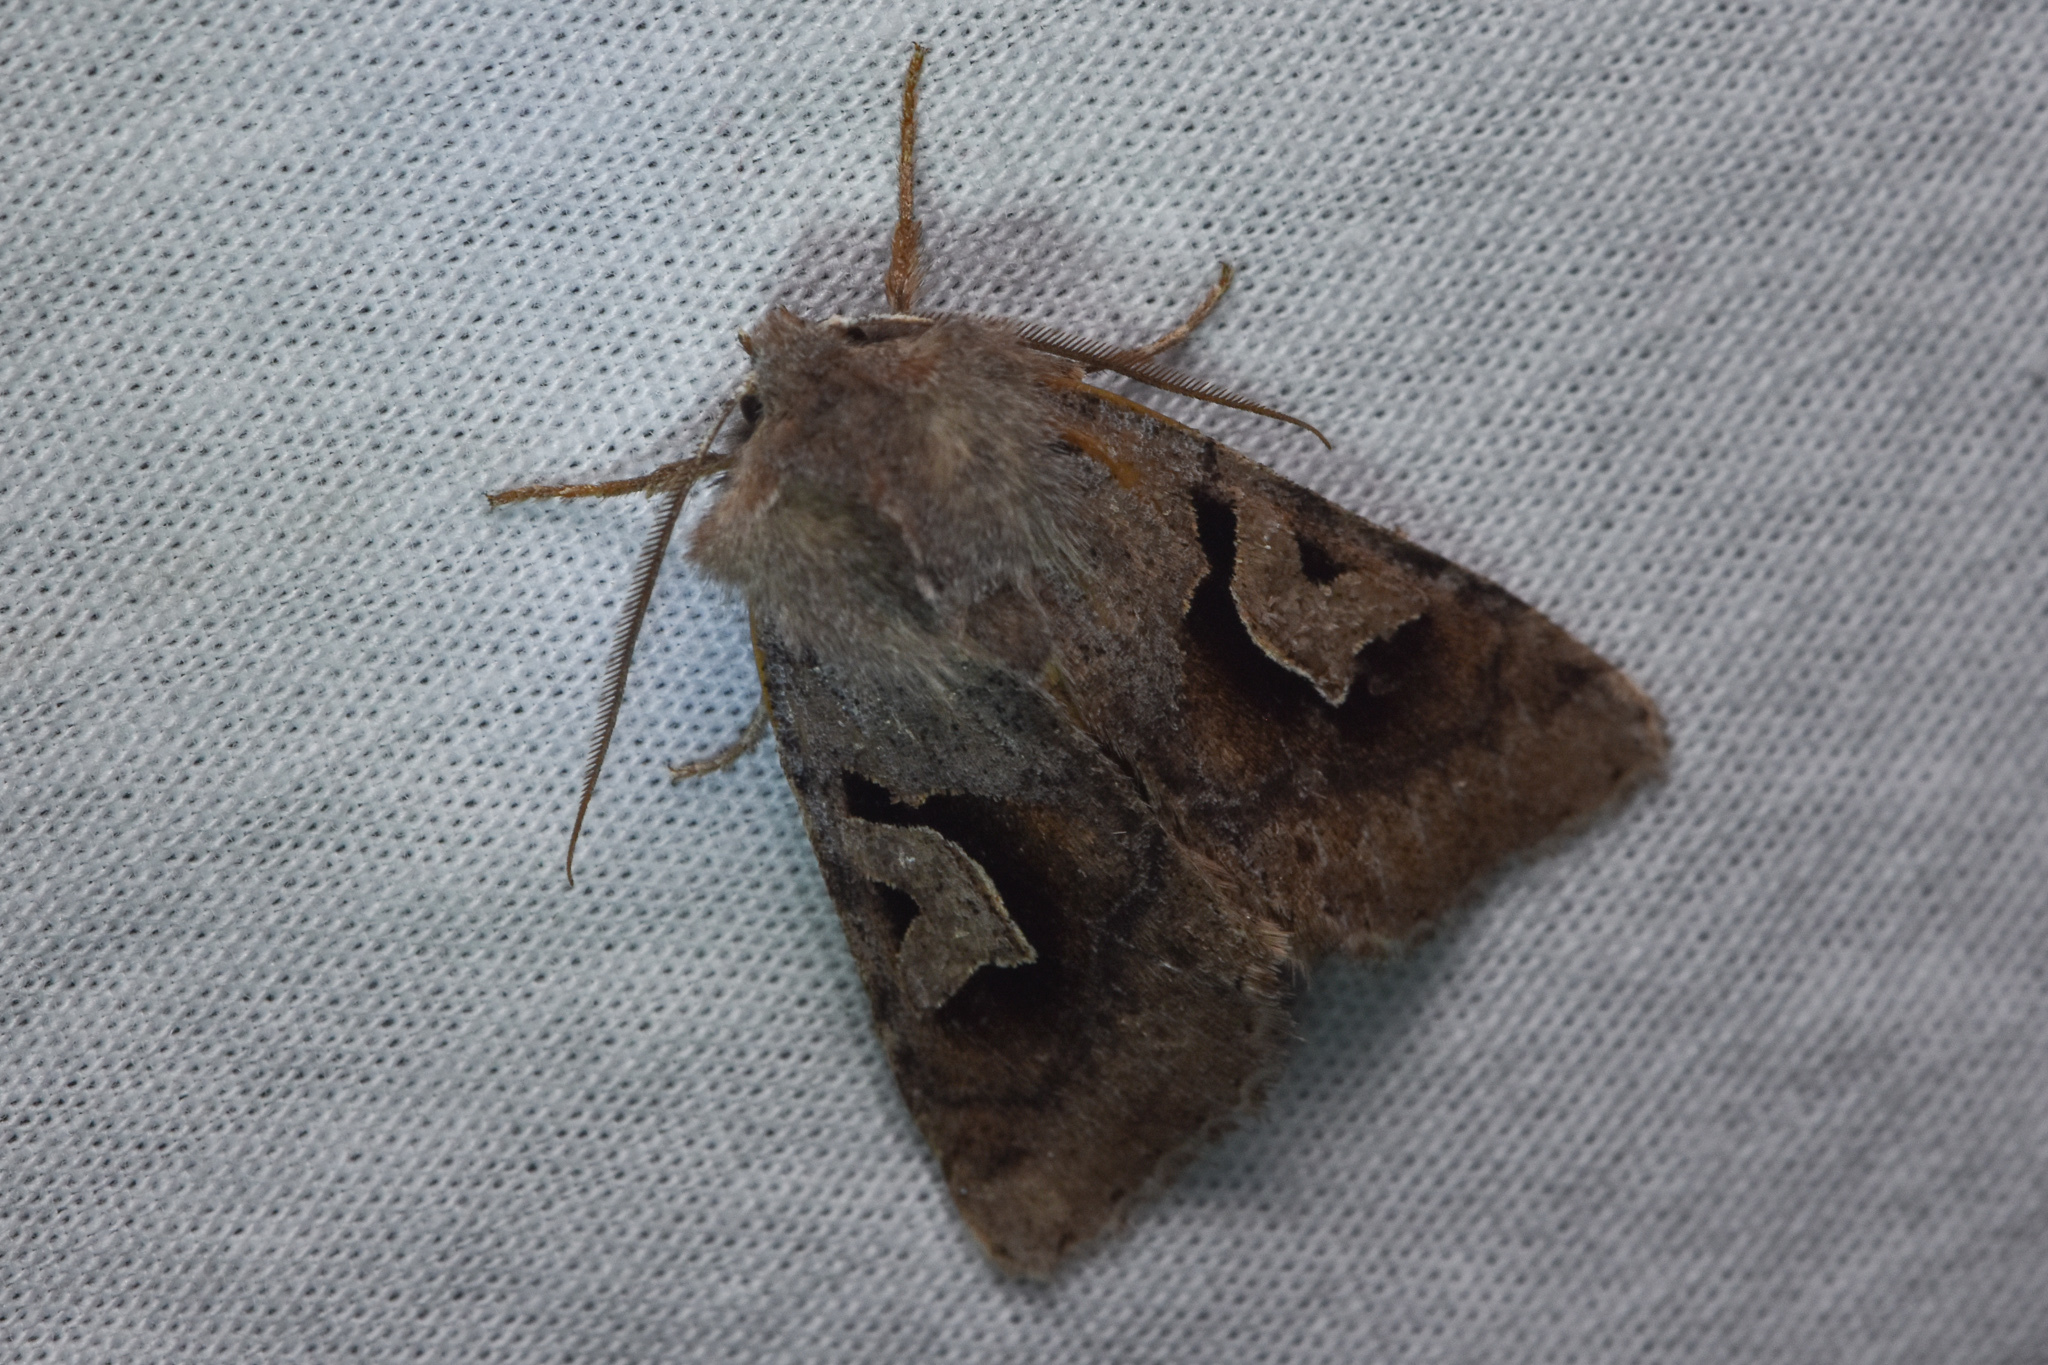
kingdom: Animalia
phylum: Arthropoda
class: Insecta
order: Lepidoptera
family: Noctuidae
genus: Acerra
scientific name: Acerra normalis
